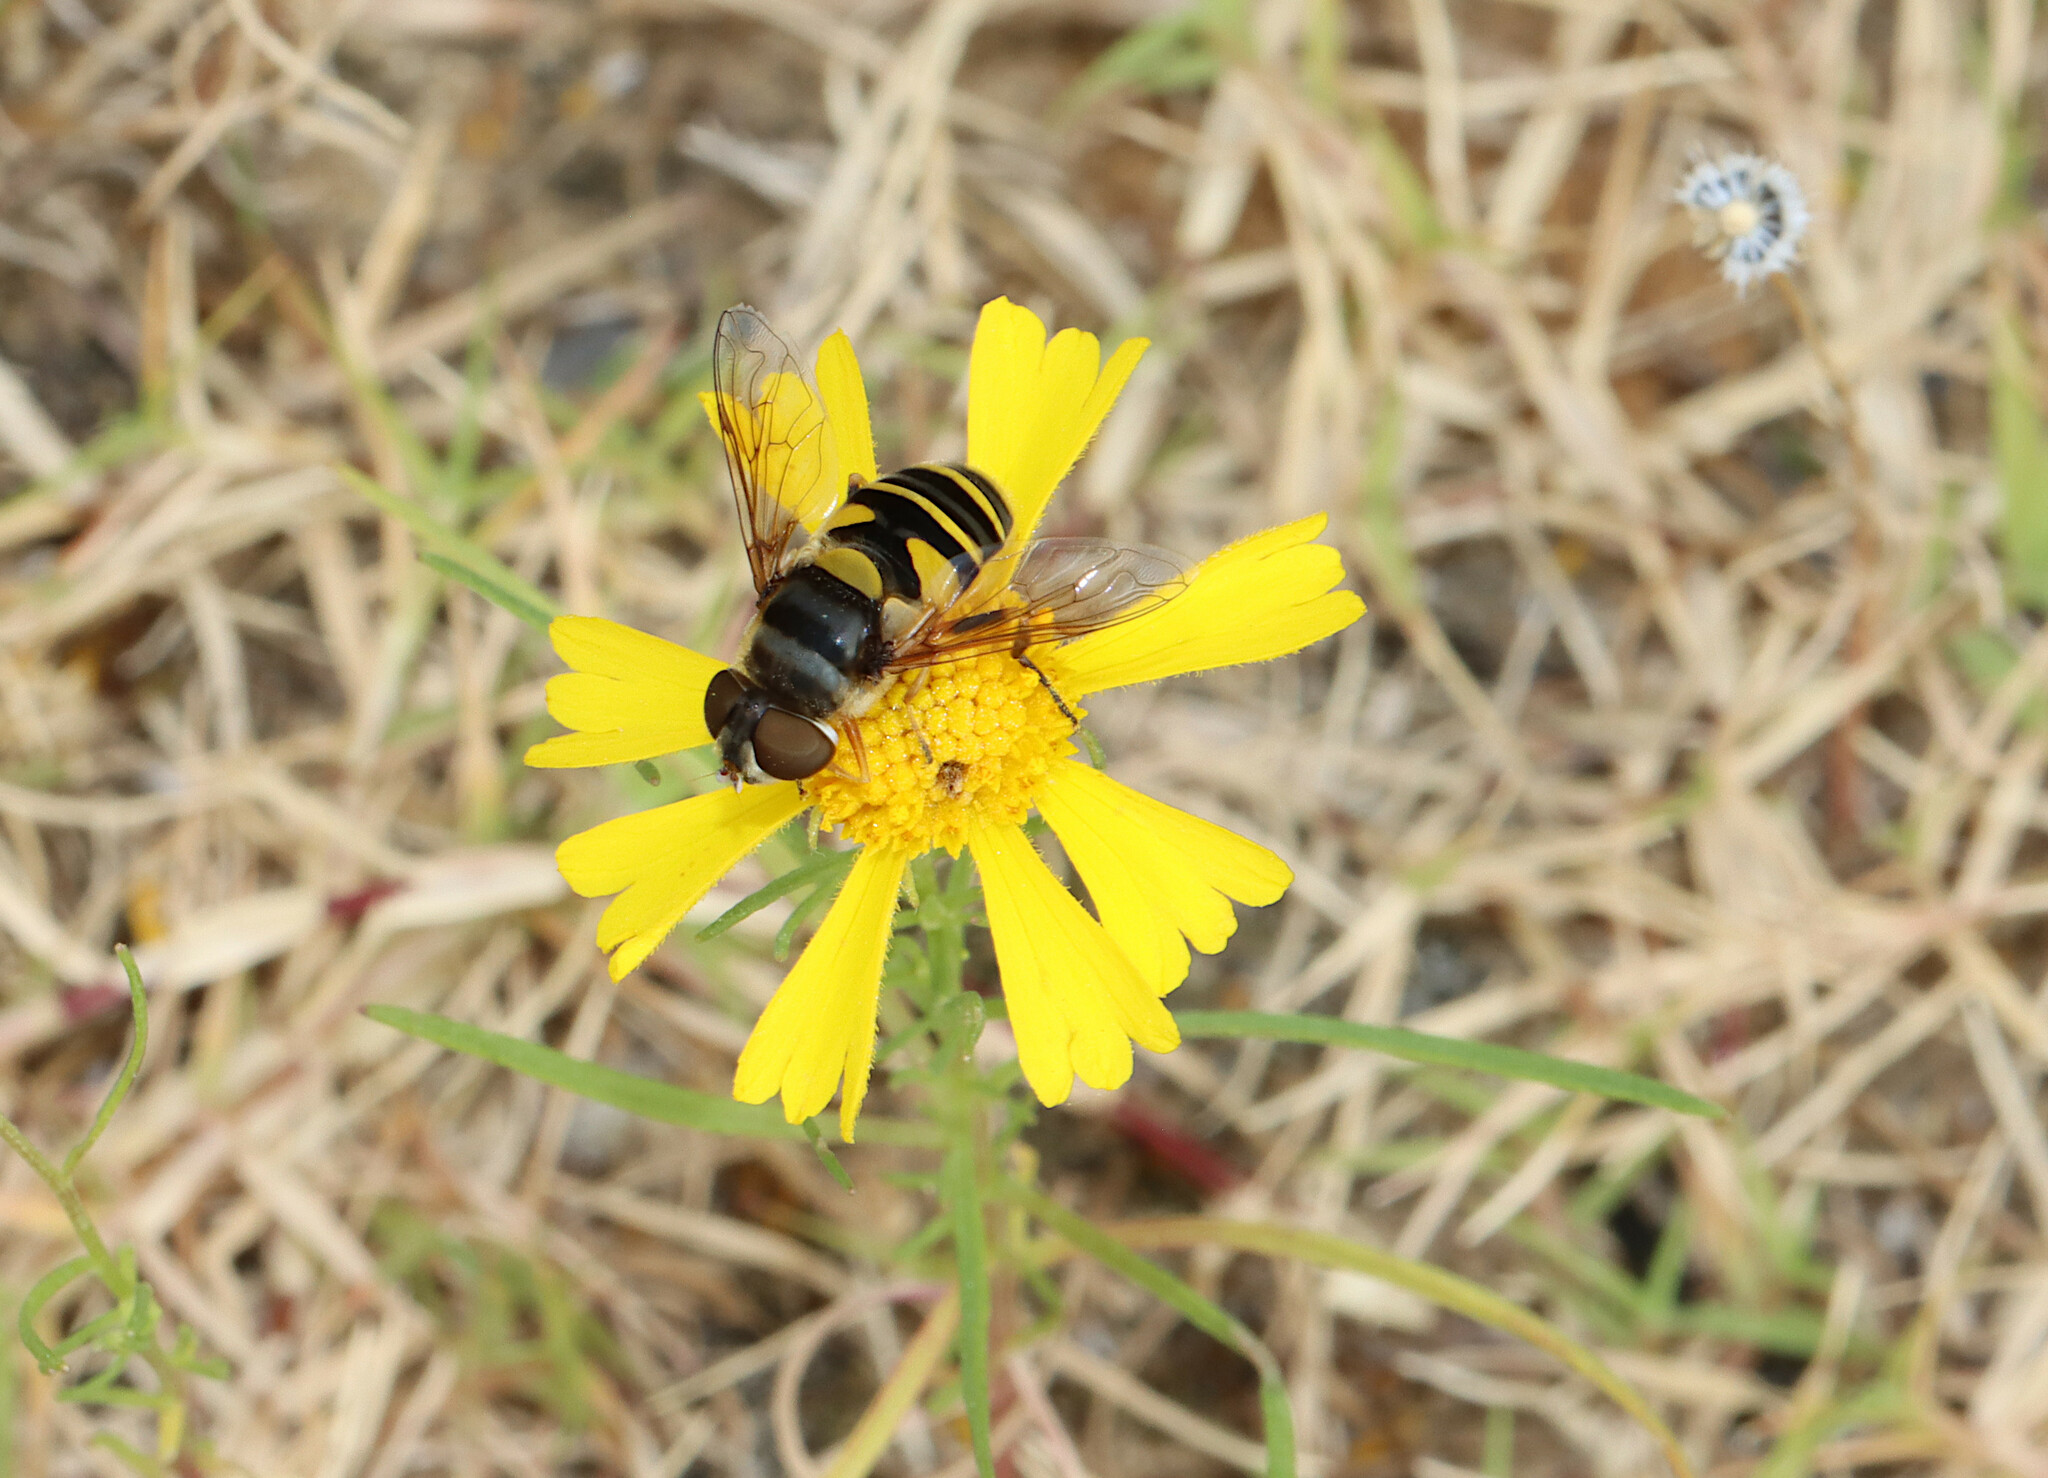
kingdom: Animalia
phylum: Arthropoda
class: Insecta
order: Diptera
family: Syrphidae
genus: Eristalis
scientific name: Eristalis transversa
